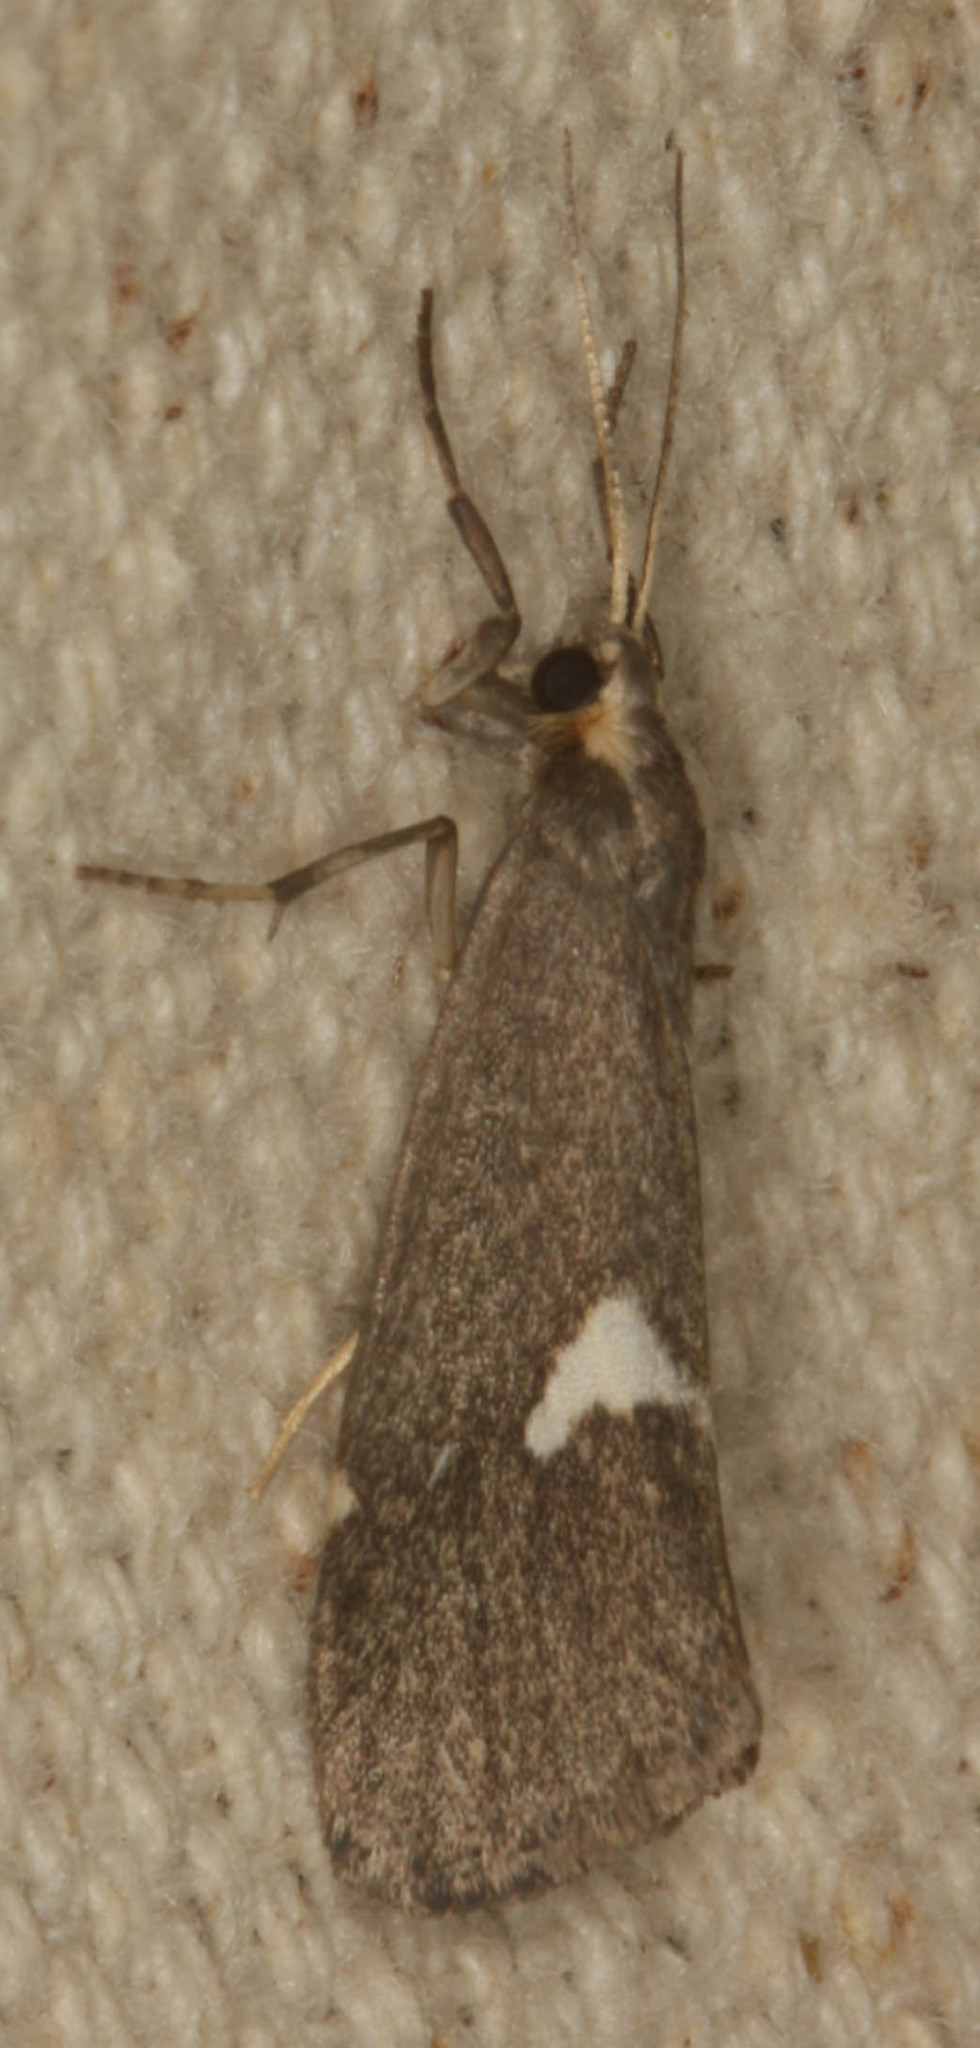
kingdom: Animalia
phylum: Arthropoda
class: Insecta
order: Lepidoptera
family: Erebidae
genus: Cisthene
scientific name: Cisthene liberomacula
